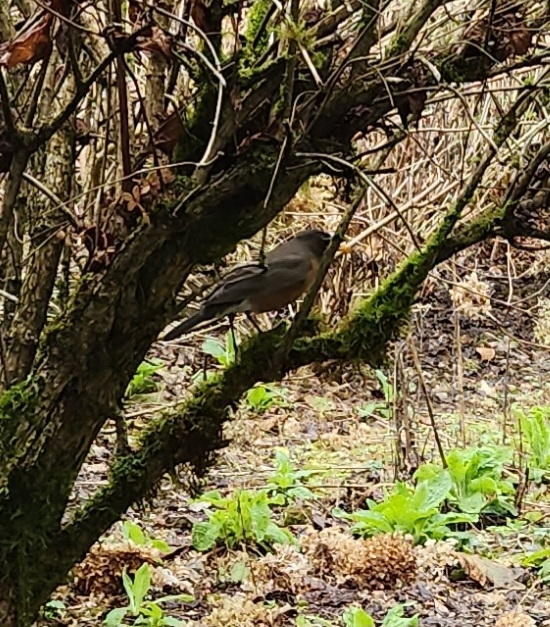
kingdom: Animalia
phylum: Chordata
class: Aves
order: Passeriformes
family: Turdidae
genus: Turdus
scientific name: Turdus migratorius
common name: American robin
